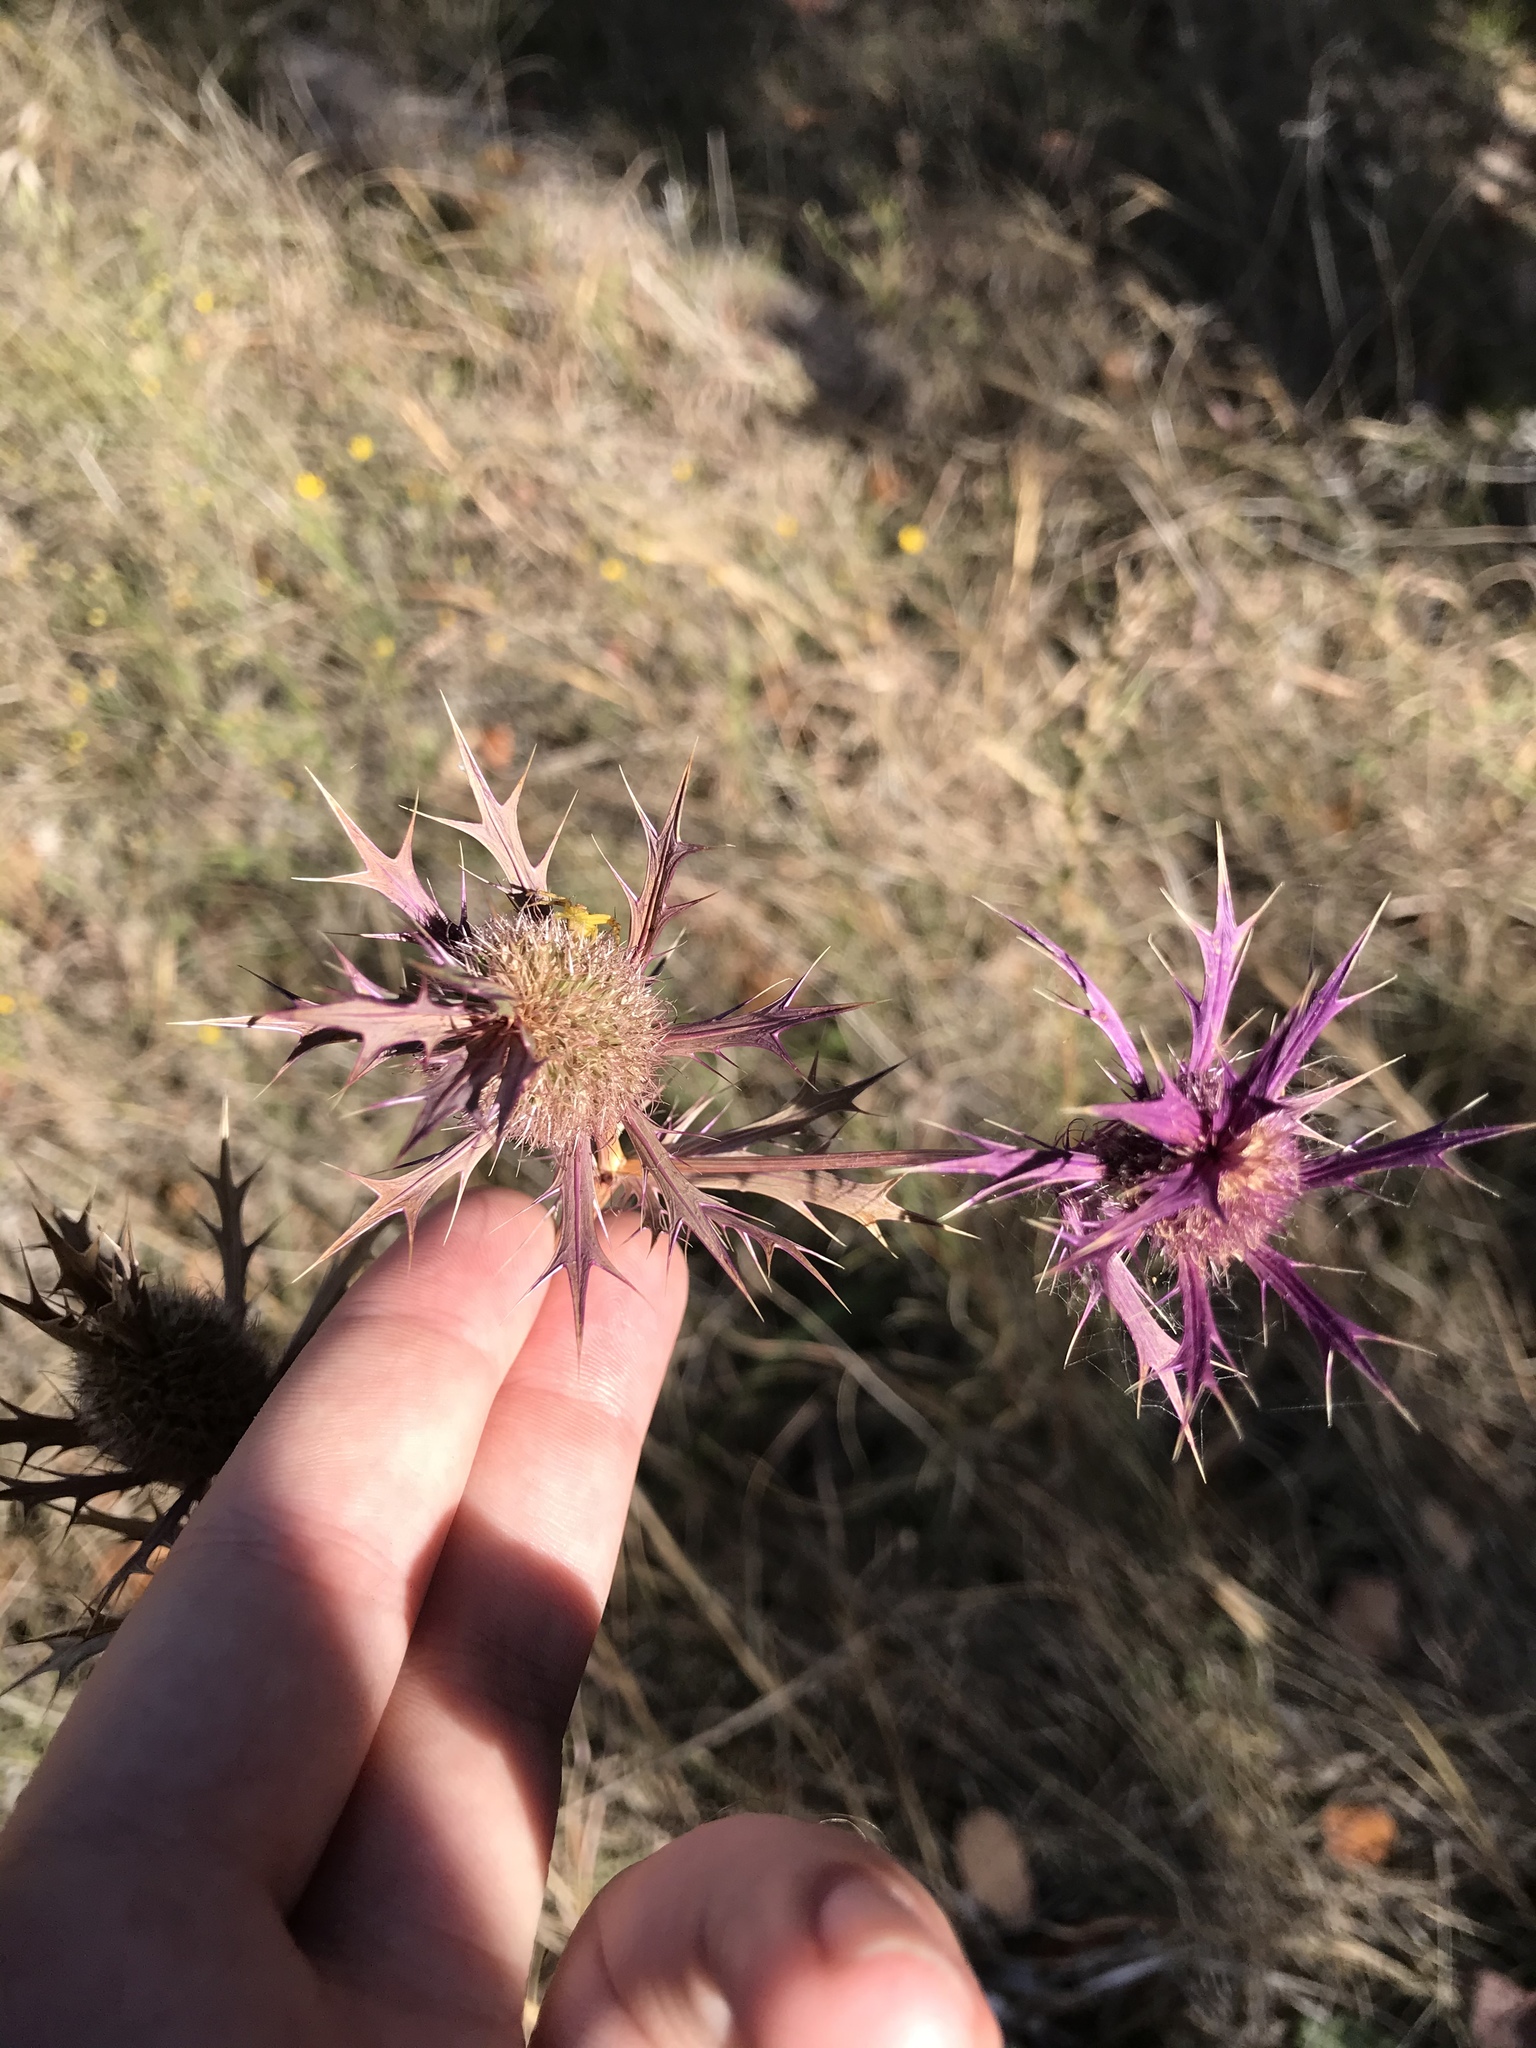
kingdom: Plantae
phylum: Tracheophyta
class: Magnoliopsida
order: Apiales
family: Apiaceae
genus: Eryngium
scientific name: Eryngium leavenworthii
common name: Leavenworth's eryngo
